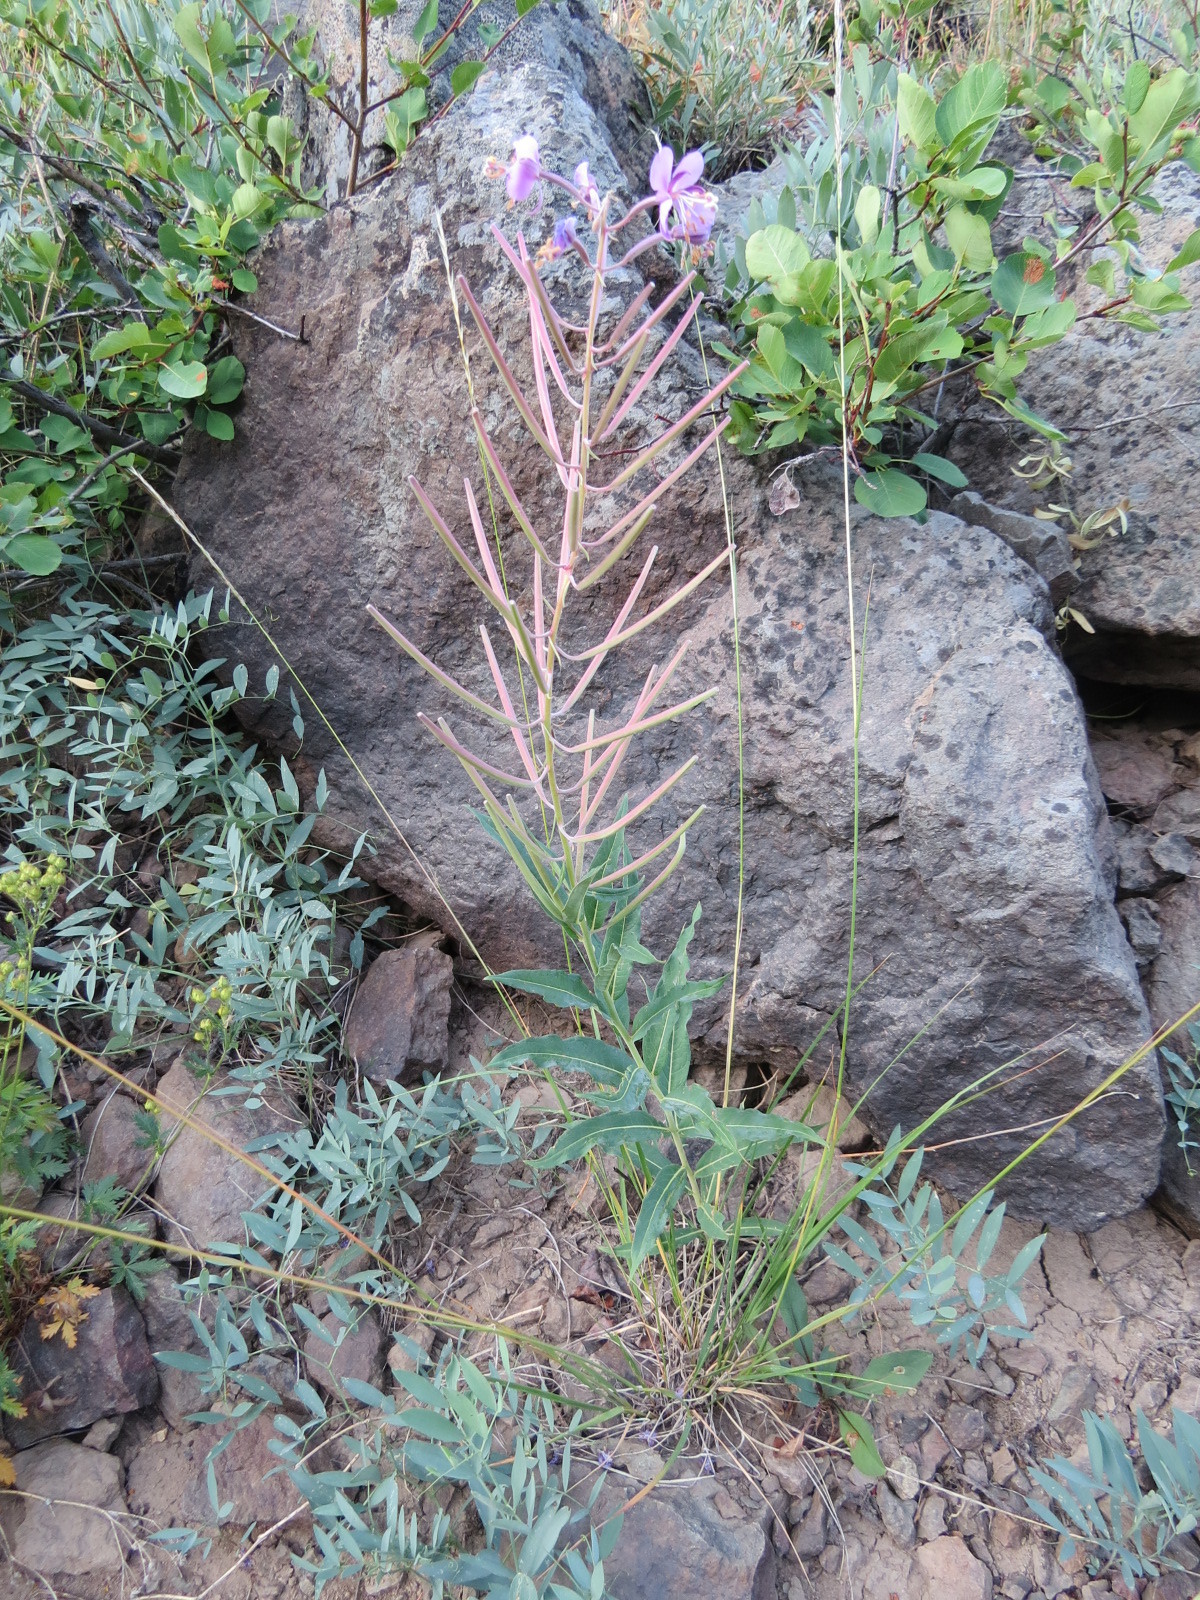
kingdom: Plantae
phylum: Tracheophyta
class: Magnoliopsida
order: Myrtales
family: Onagraceae
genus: Chamaenerion
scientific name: Chamaenerion angustifolium
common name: Fireweed
